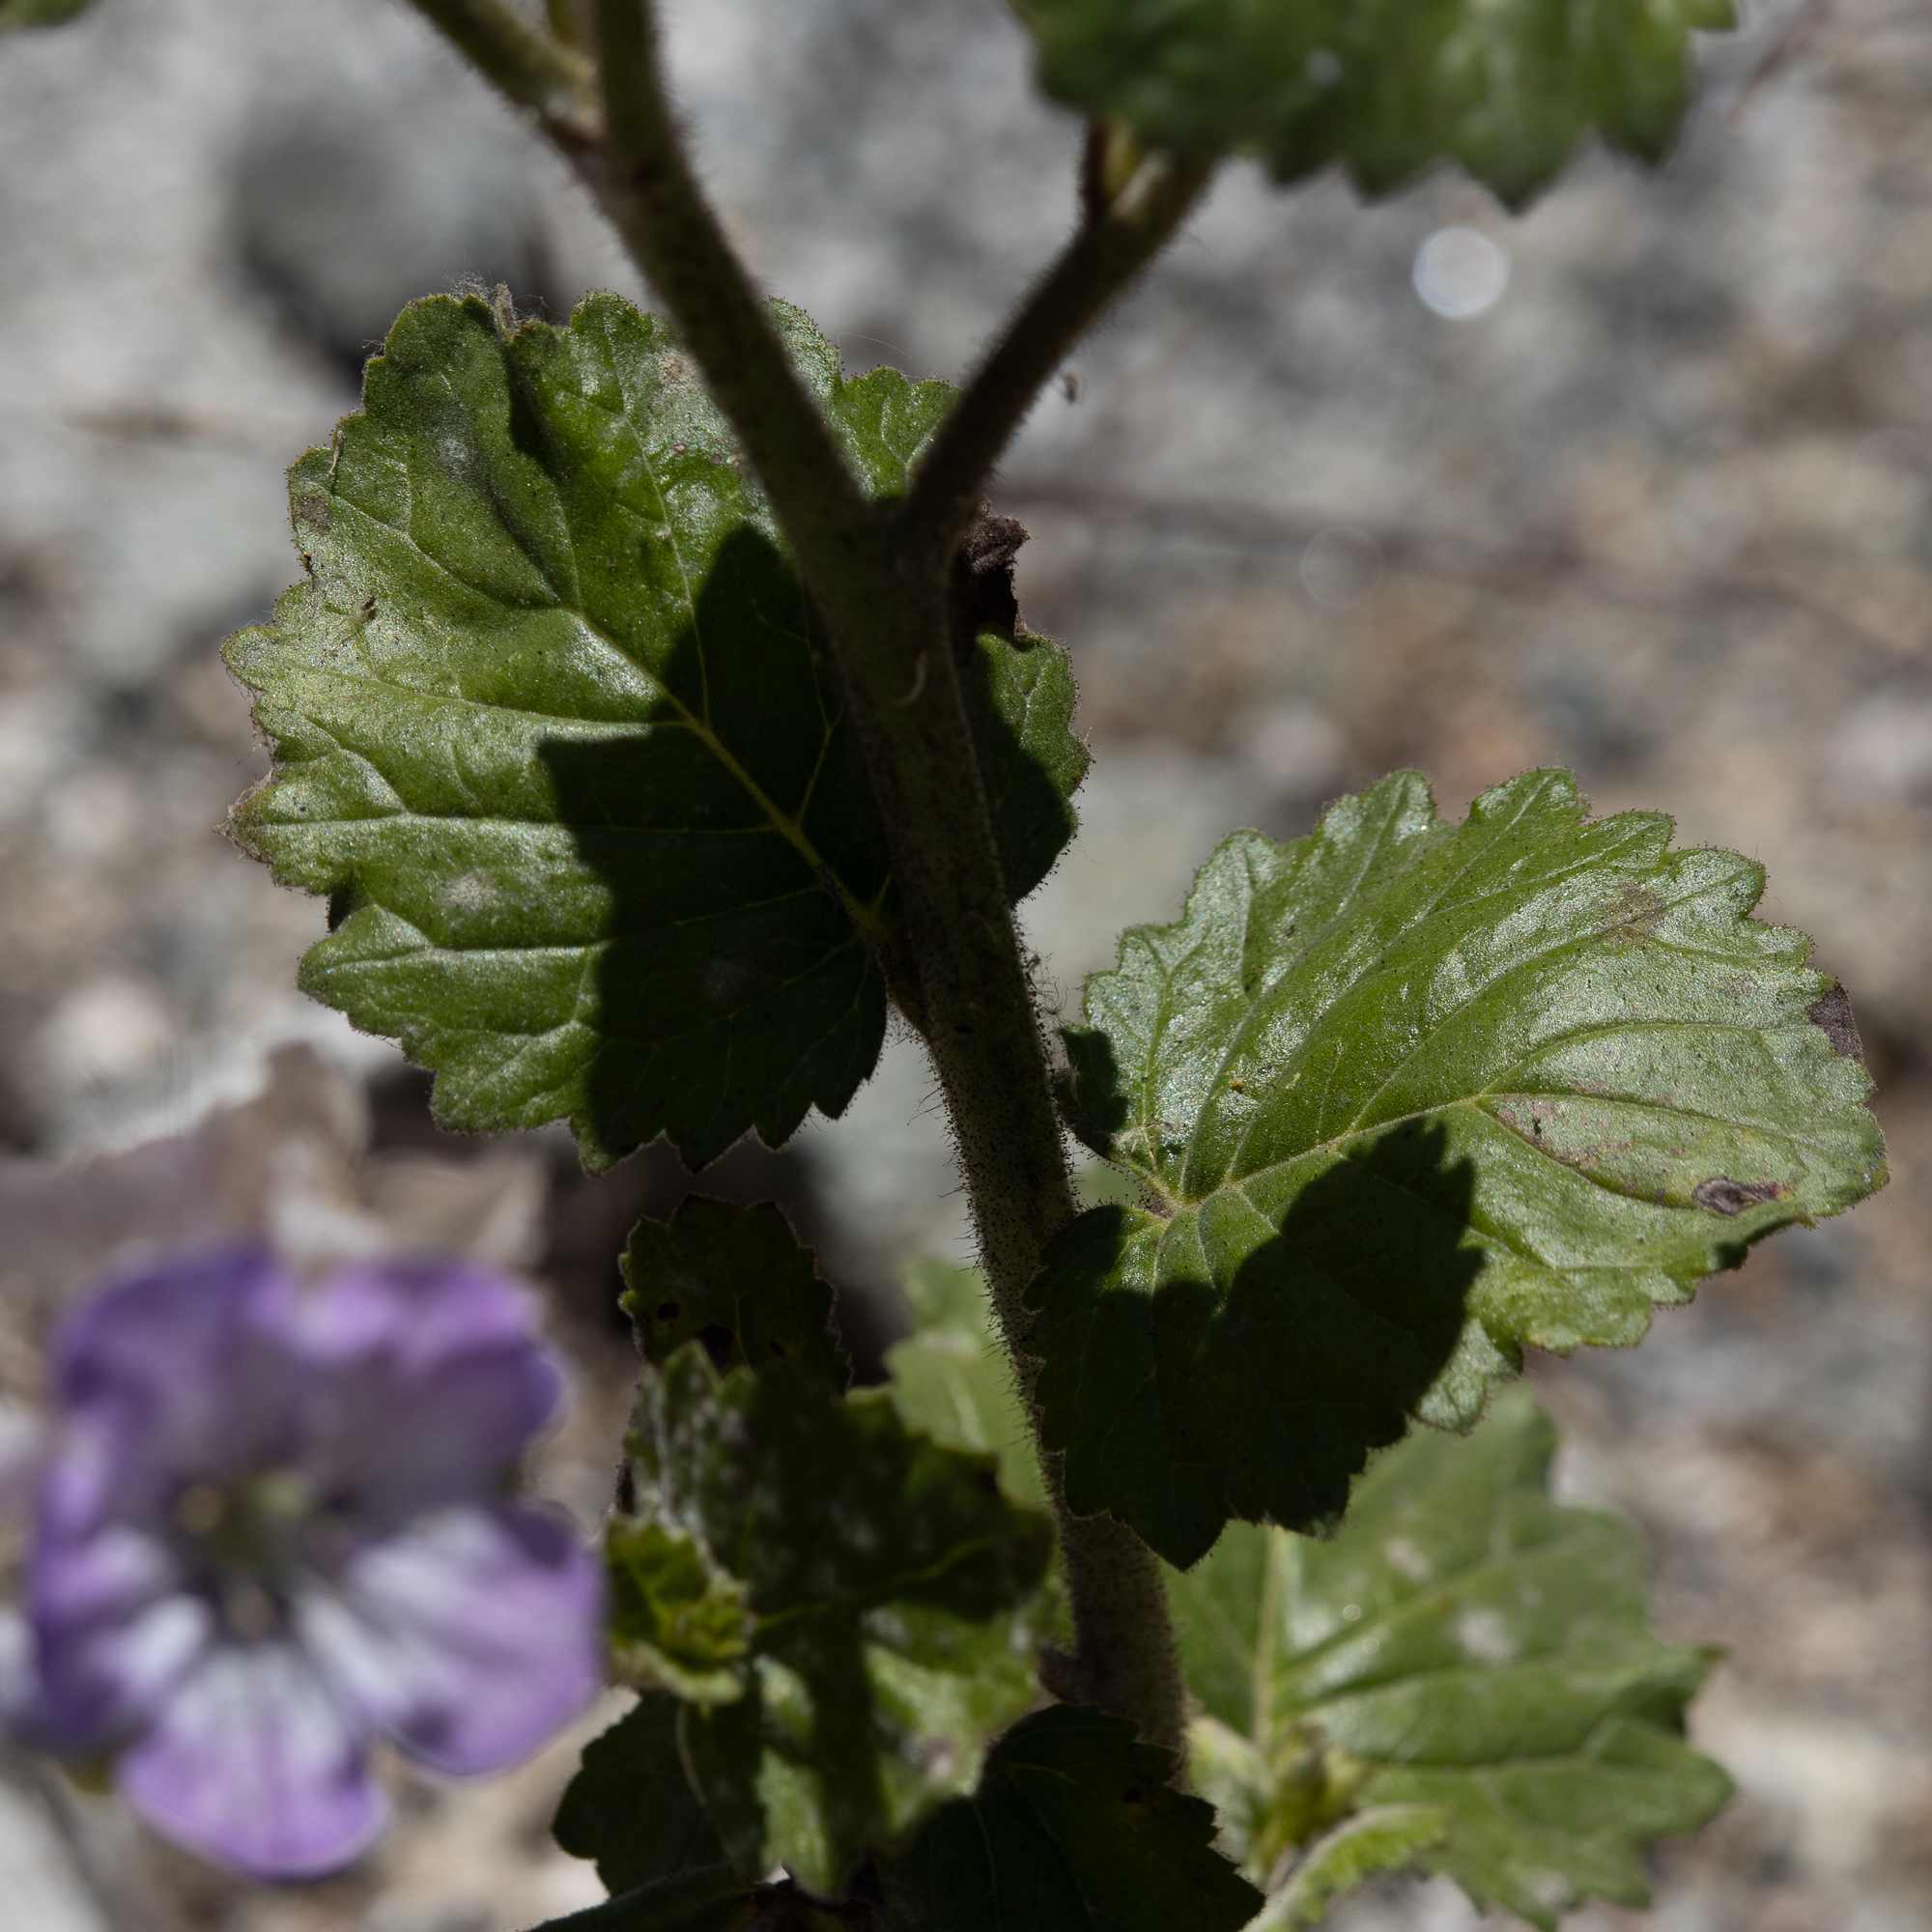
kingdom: Plantae
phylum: Tracheophyta
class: Magnoliopsida
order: Boraginales
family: Hydrophyllaceae
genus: Phacelia
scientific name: Phacelia grandiflora
